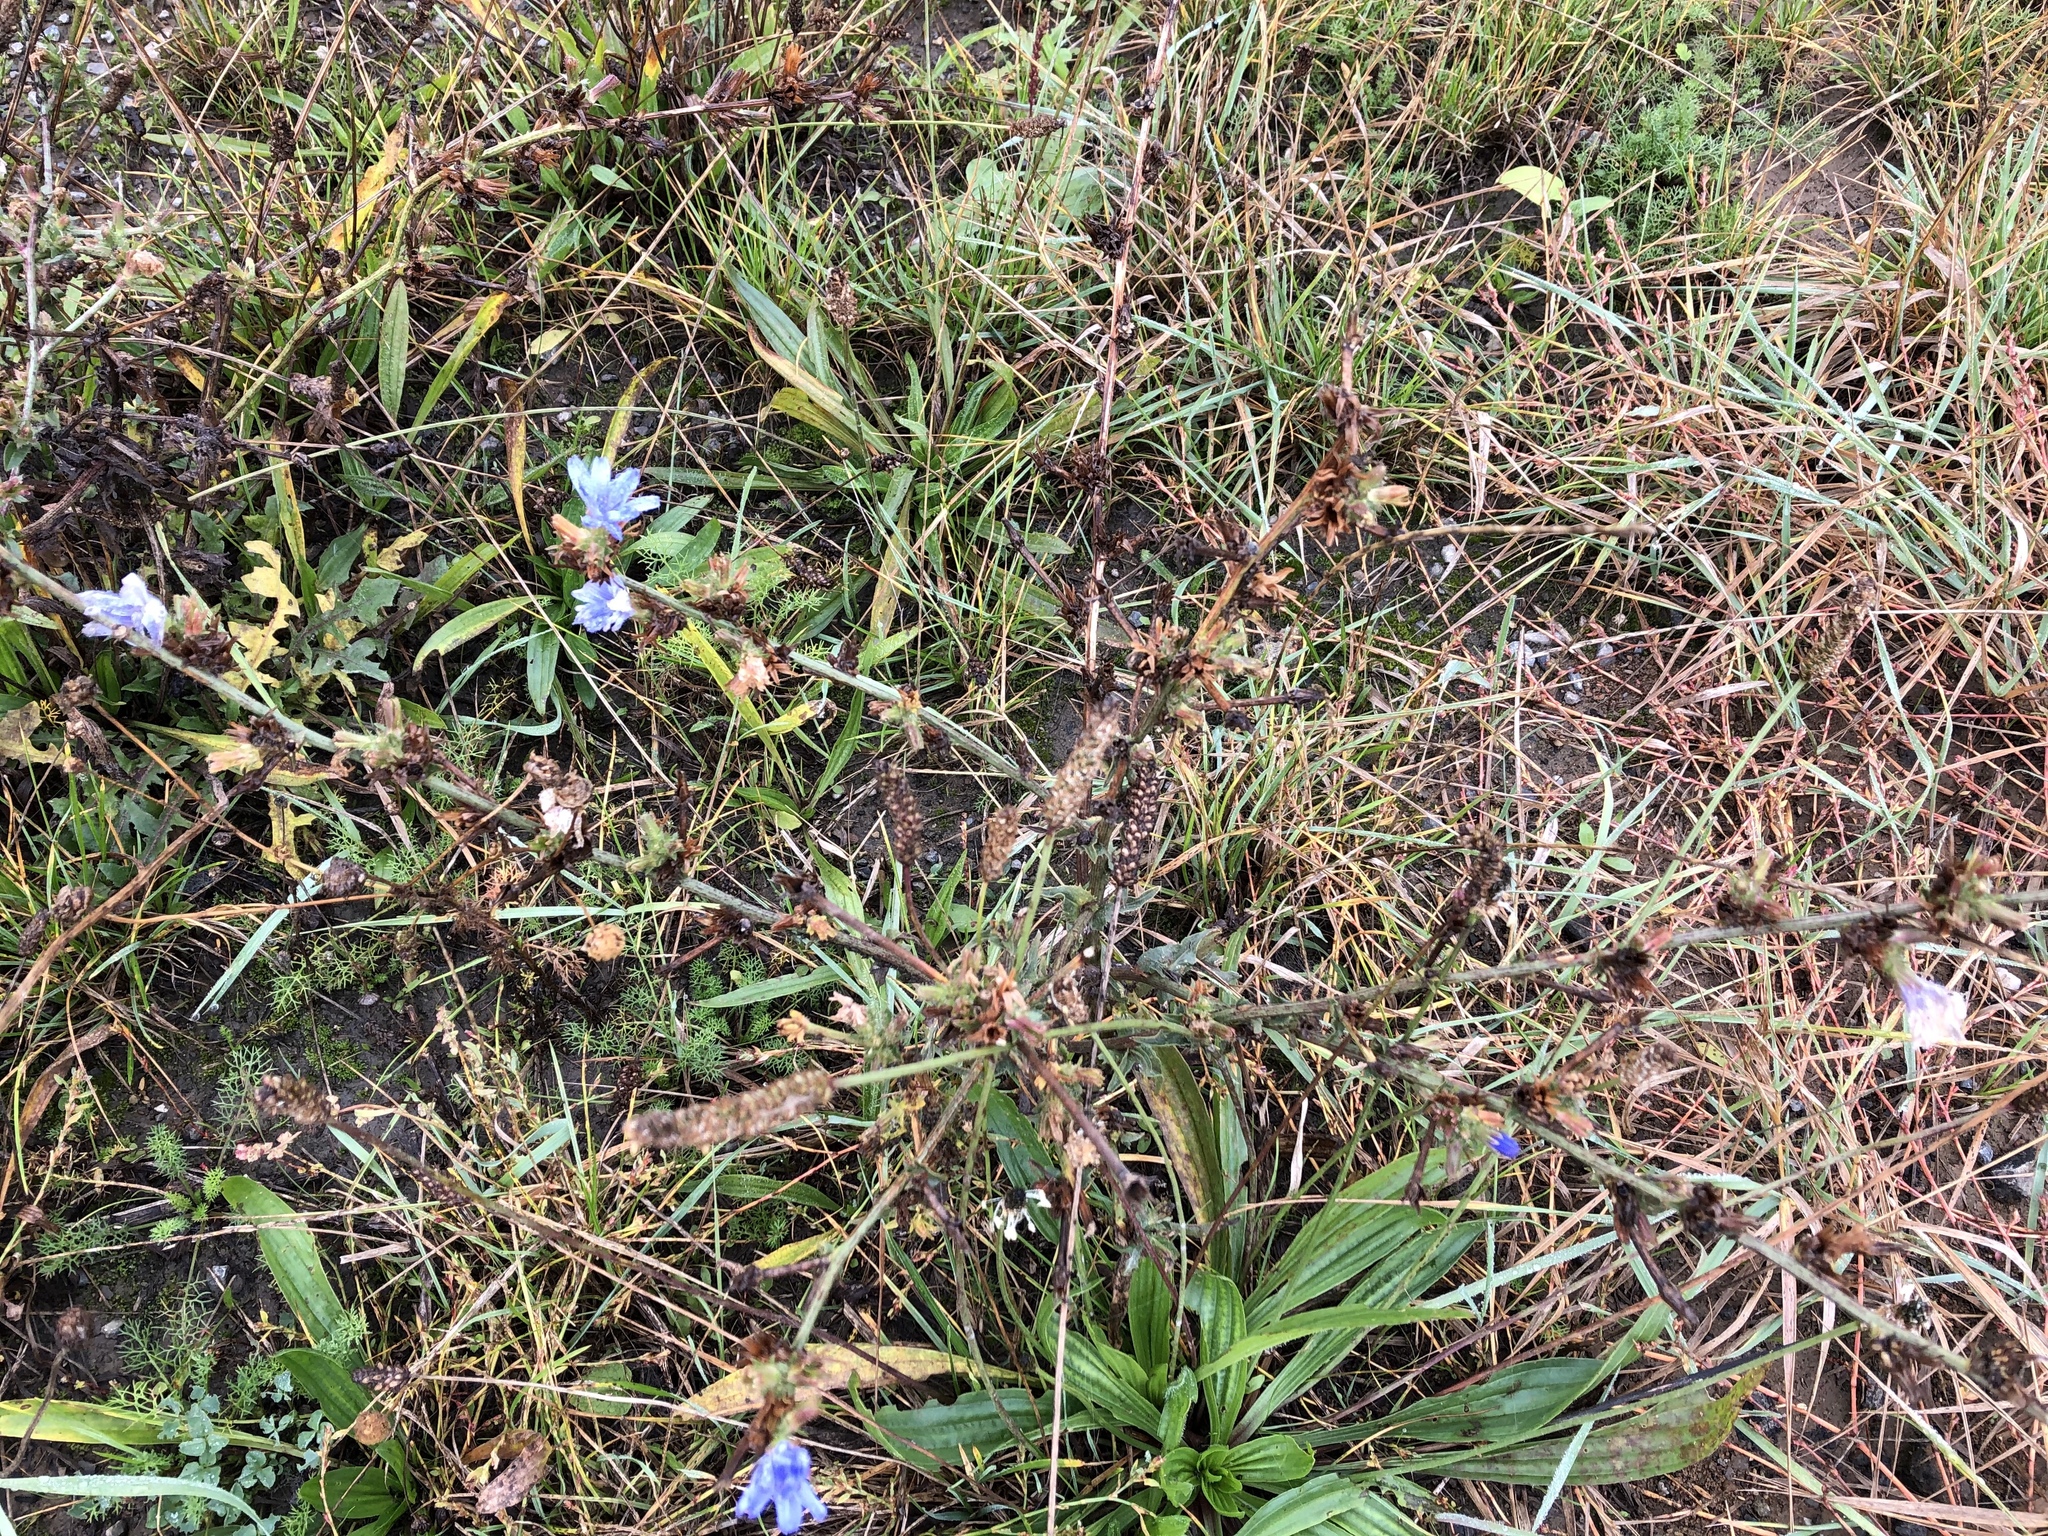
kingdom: Plantae
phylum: Tracheophyta
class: Magnoliopsida
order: Asterales
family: Asteraceae
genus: Cichorium
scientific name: Cichorium intybus
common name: Chicory
